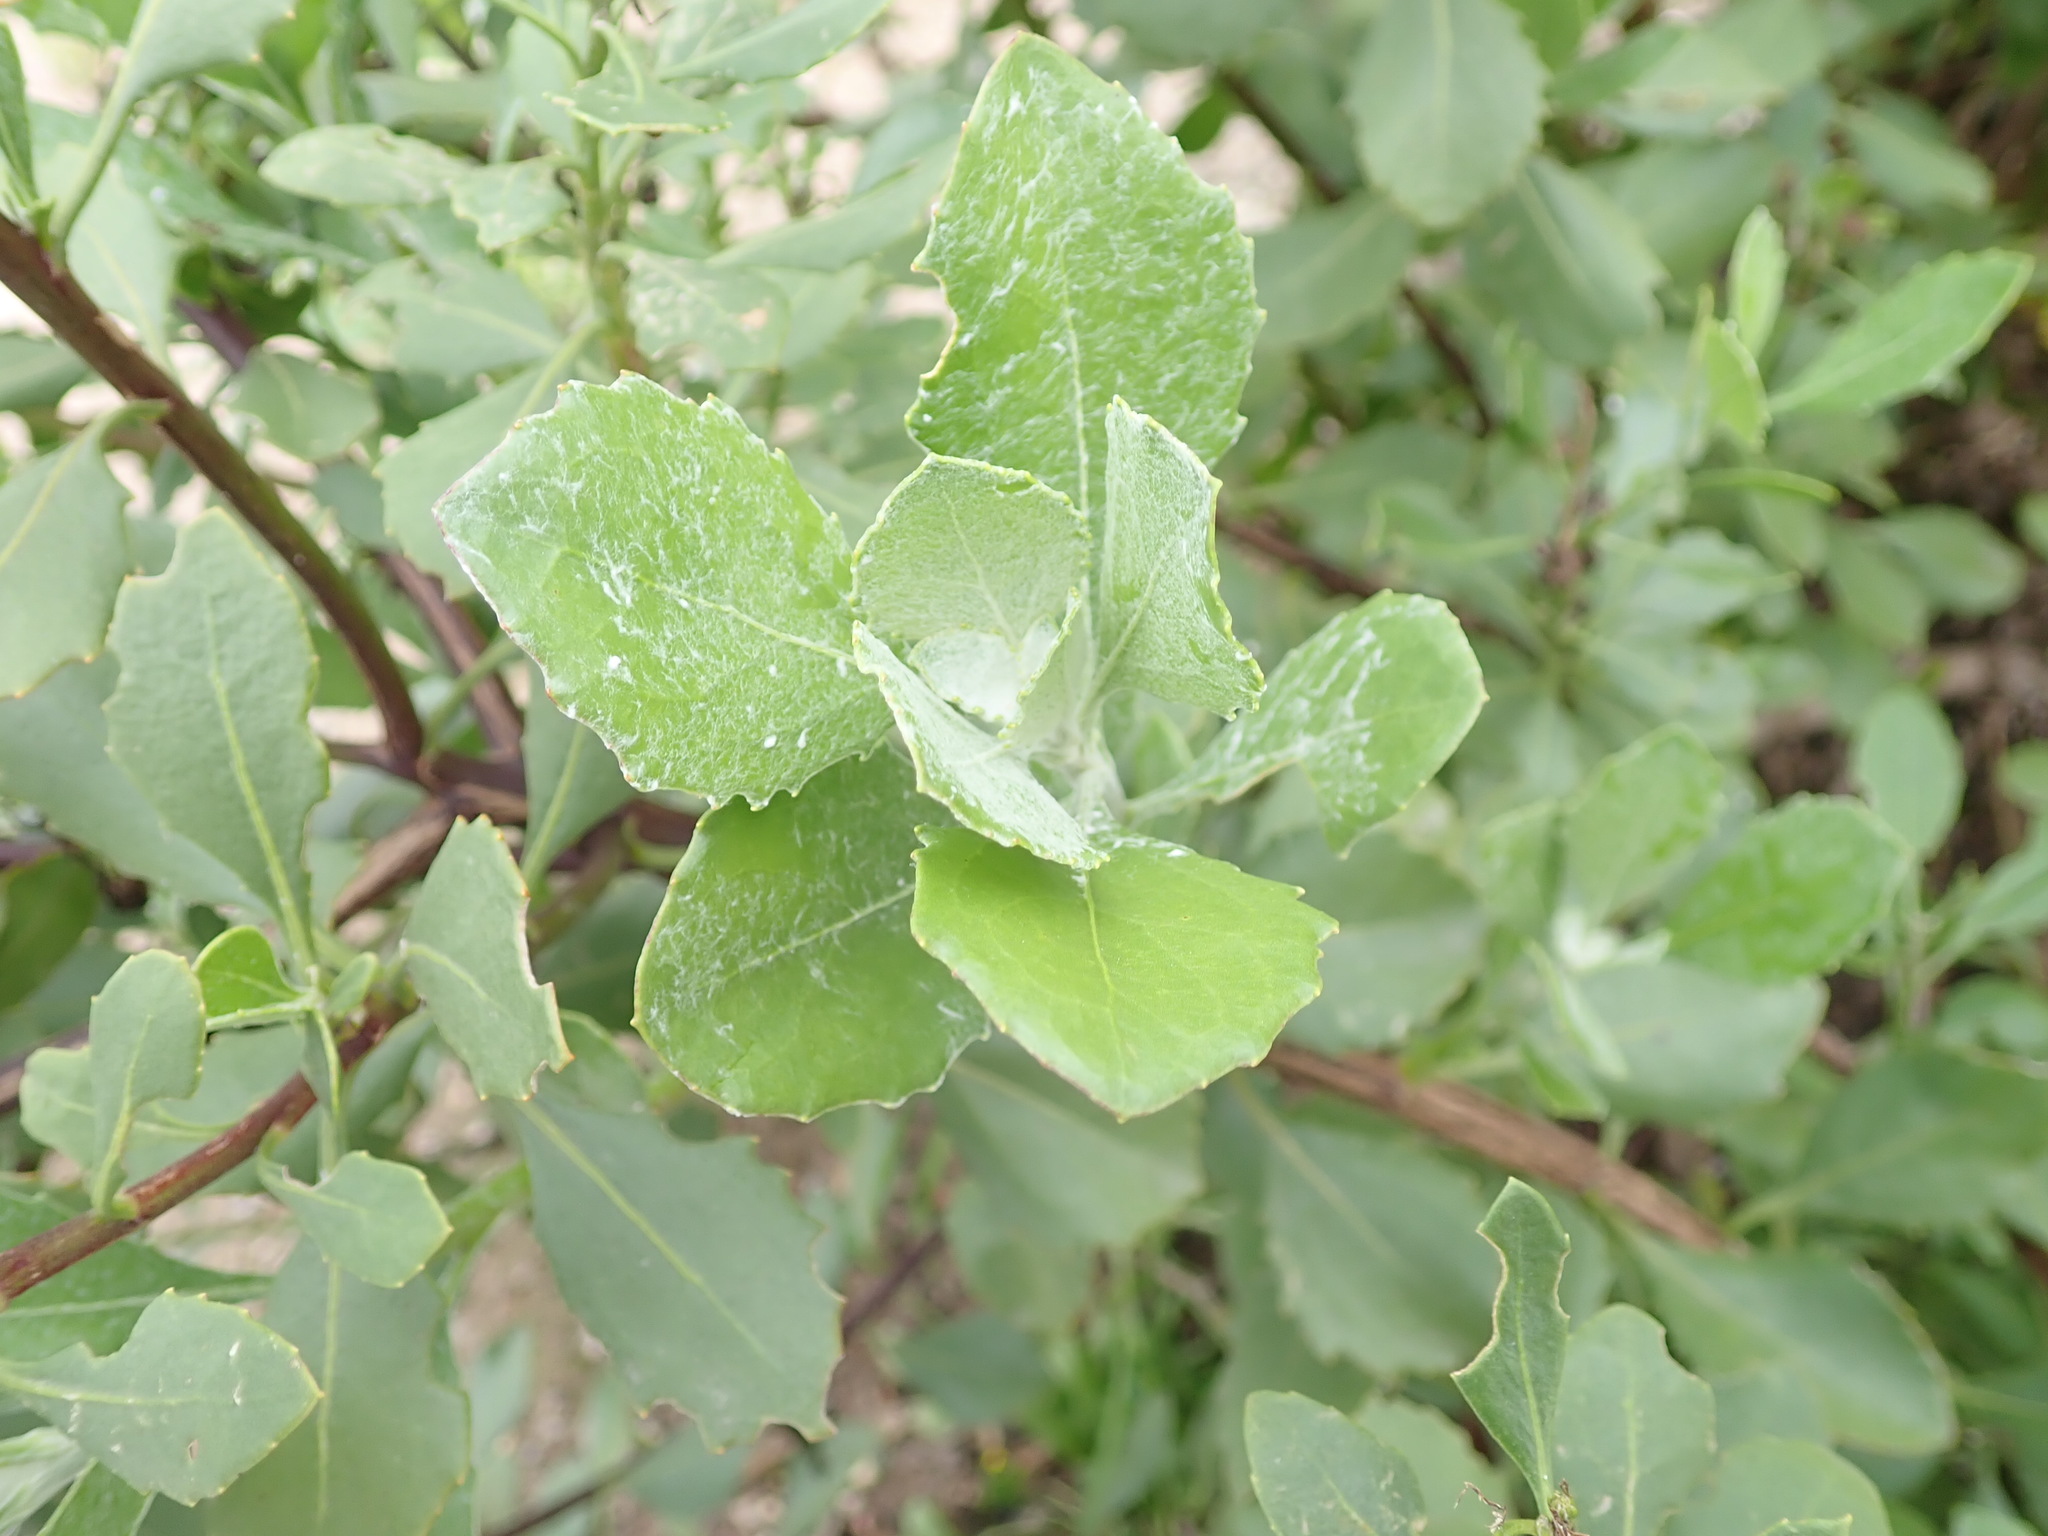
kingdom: Plantae
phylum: Tracheophyta
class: Magnoliopsida
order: Asterales
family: Asteraceae
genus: Osteospermum
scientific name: Osteospermum moniliferum
